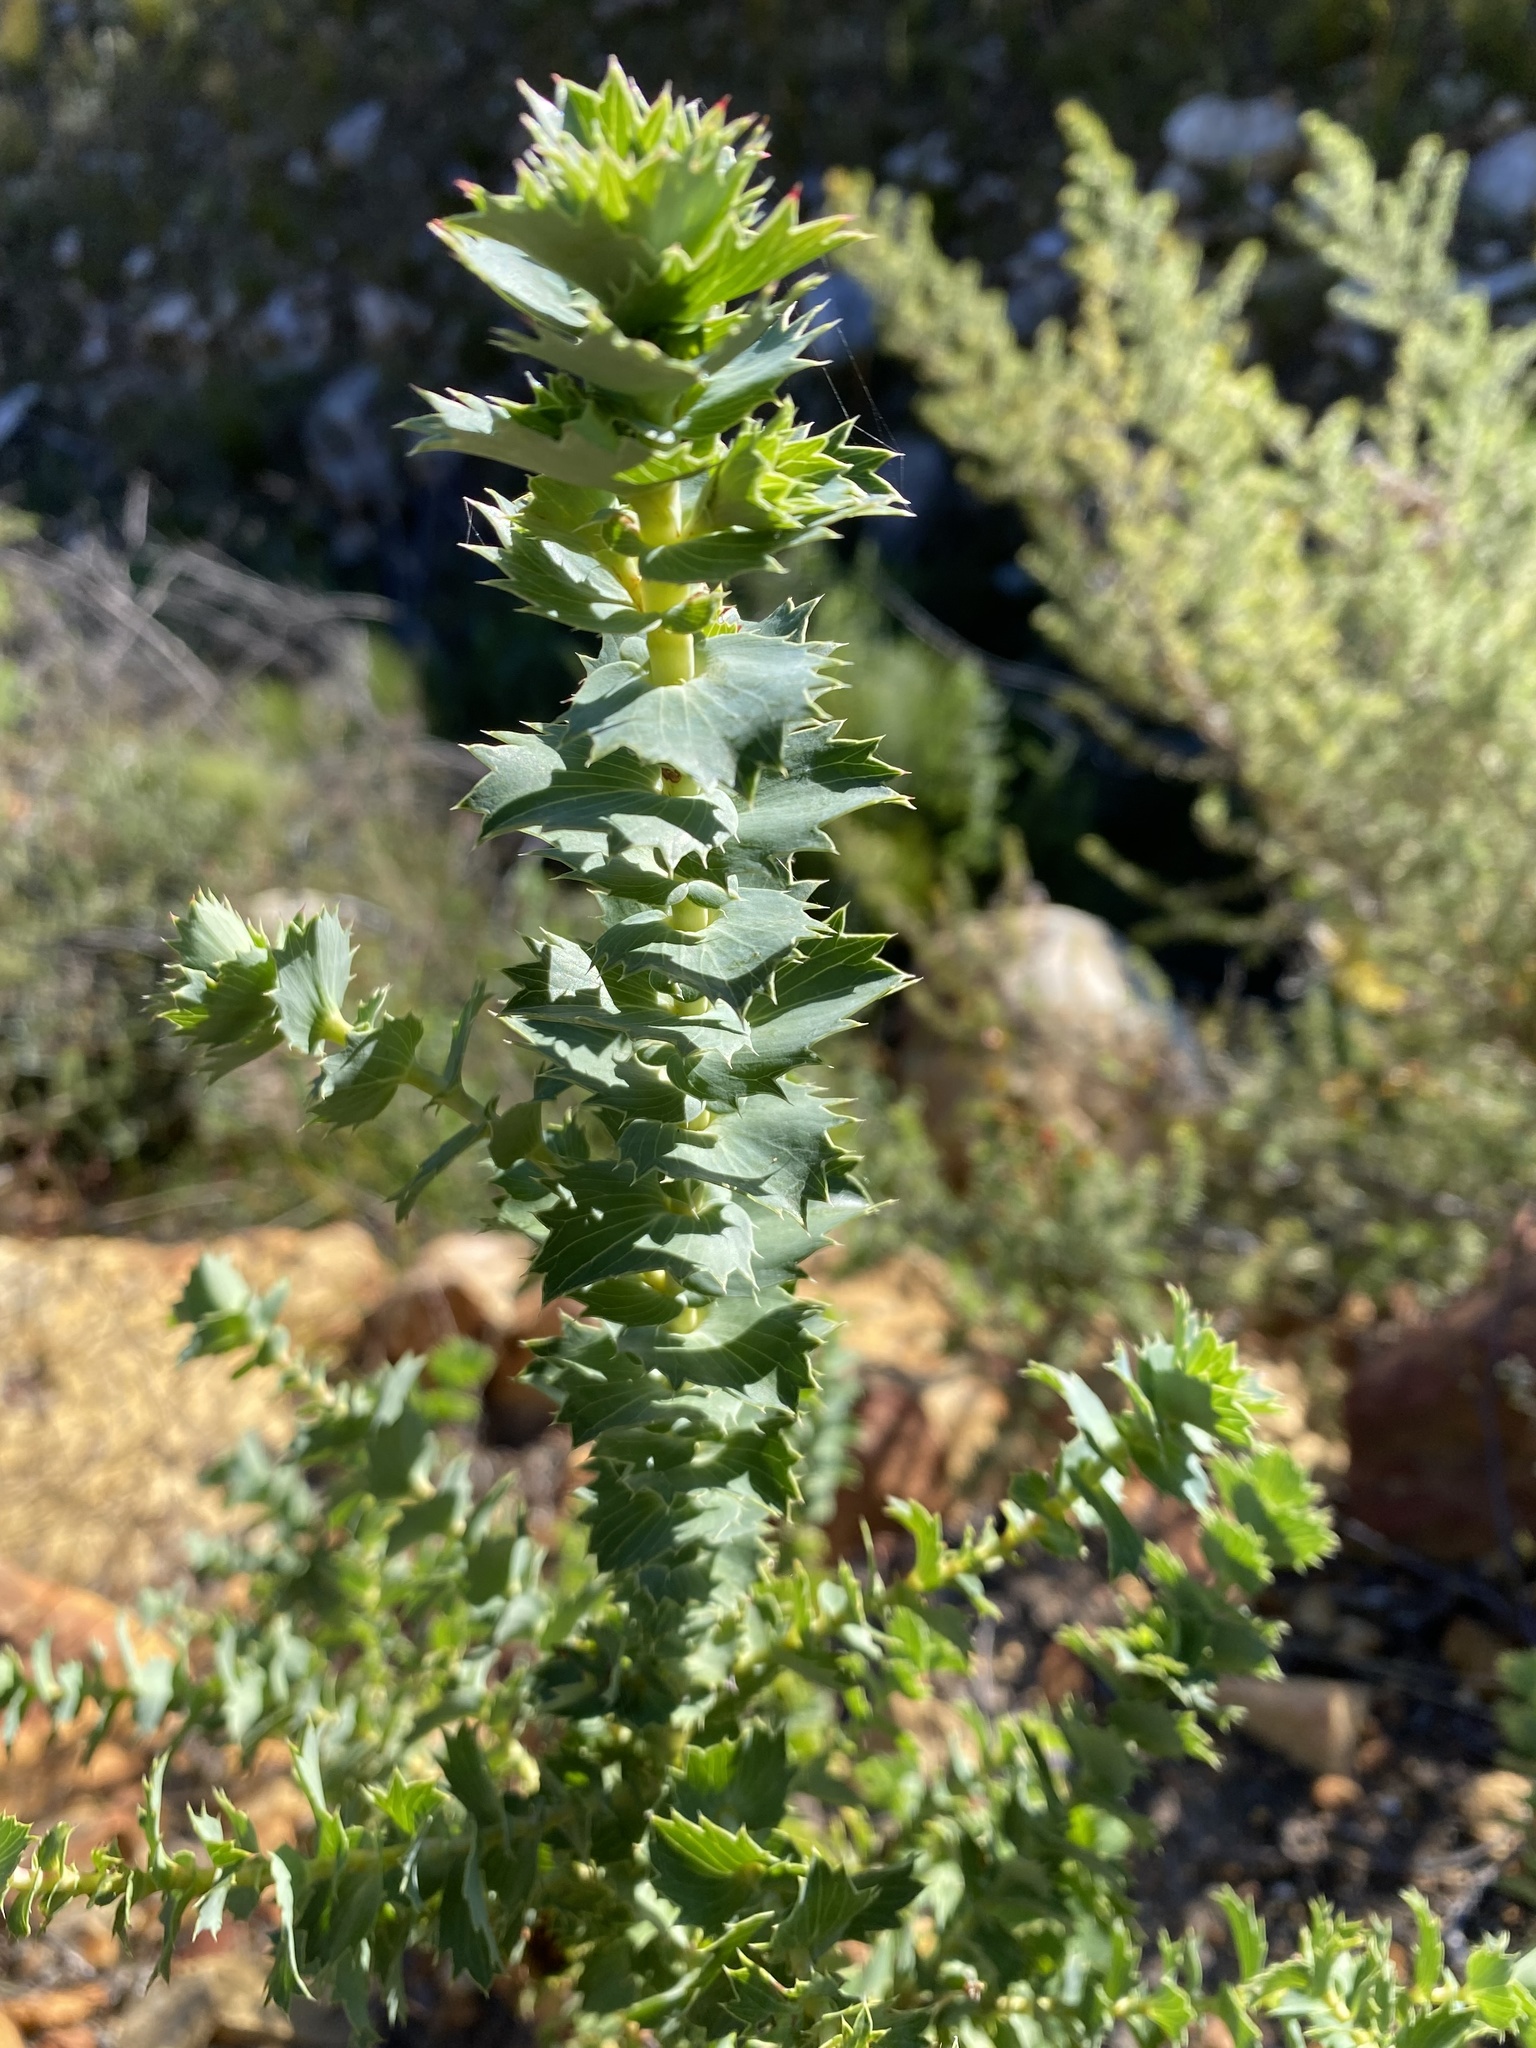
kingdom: Plantae
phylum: Tracheophyta
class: Magnoliopsida
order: Rosales
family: Rosaceae
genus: Cliffortia
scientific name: Cliffortia reniformis
